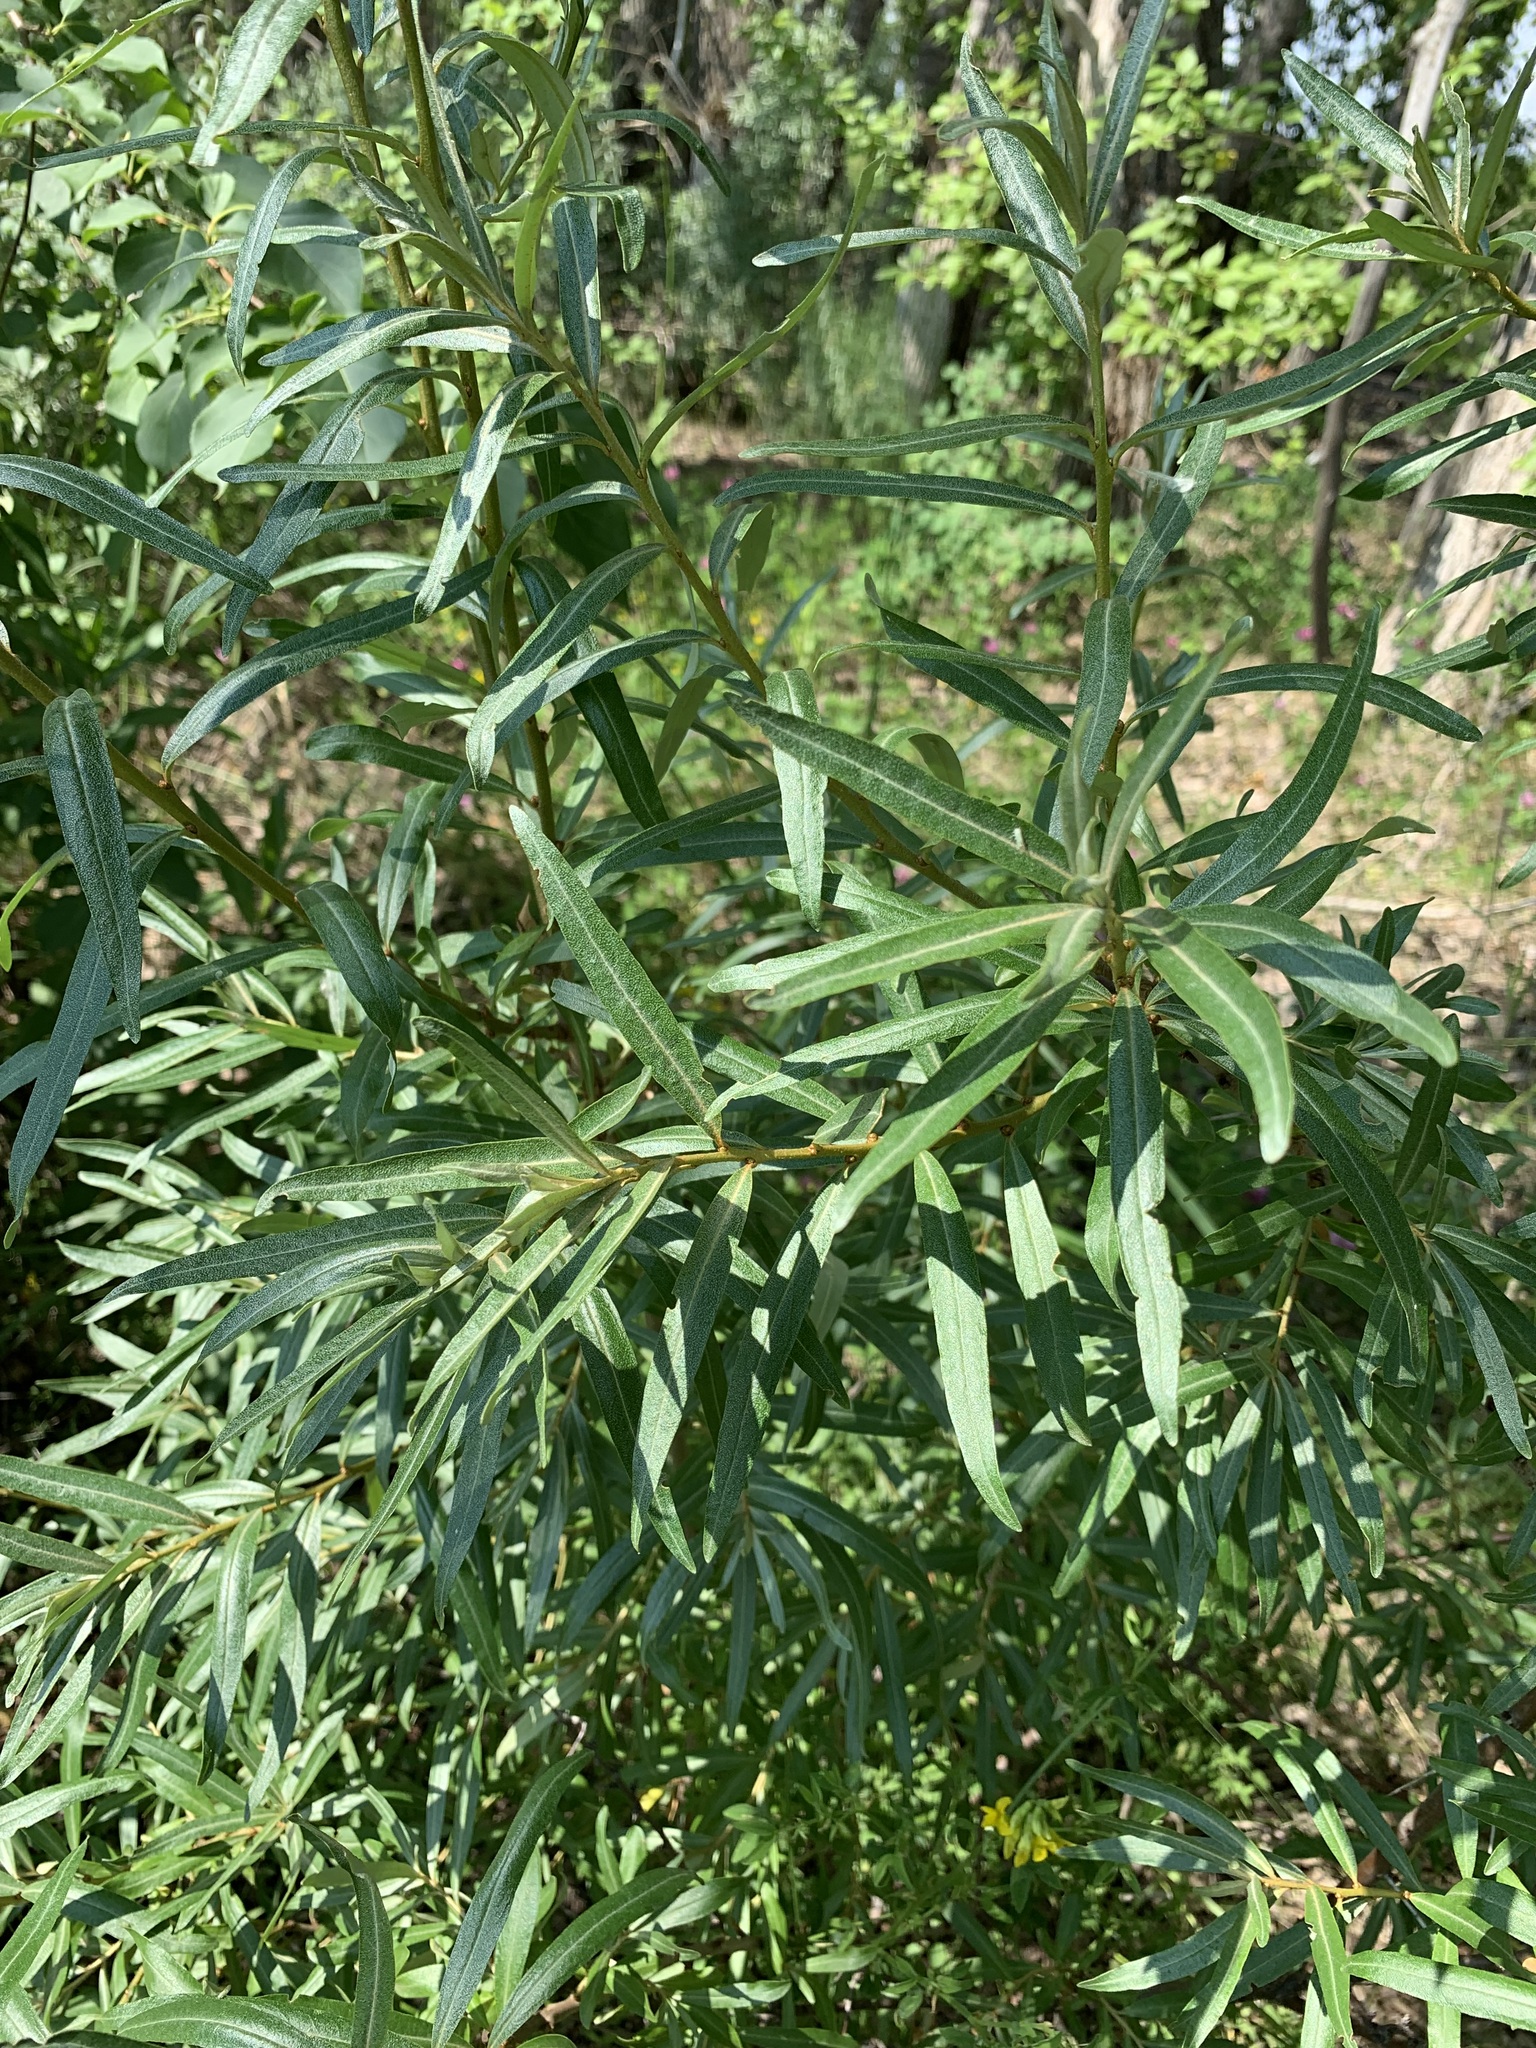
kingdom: Plantae
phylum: Tracheophyta
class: Magnoliopsida
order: Rosales
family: Elaeagnaceae
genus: Hippophae
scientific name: Hippophae rhamnoides
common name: Sea-buckthorn
